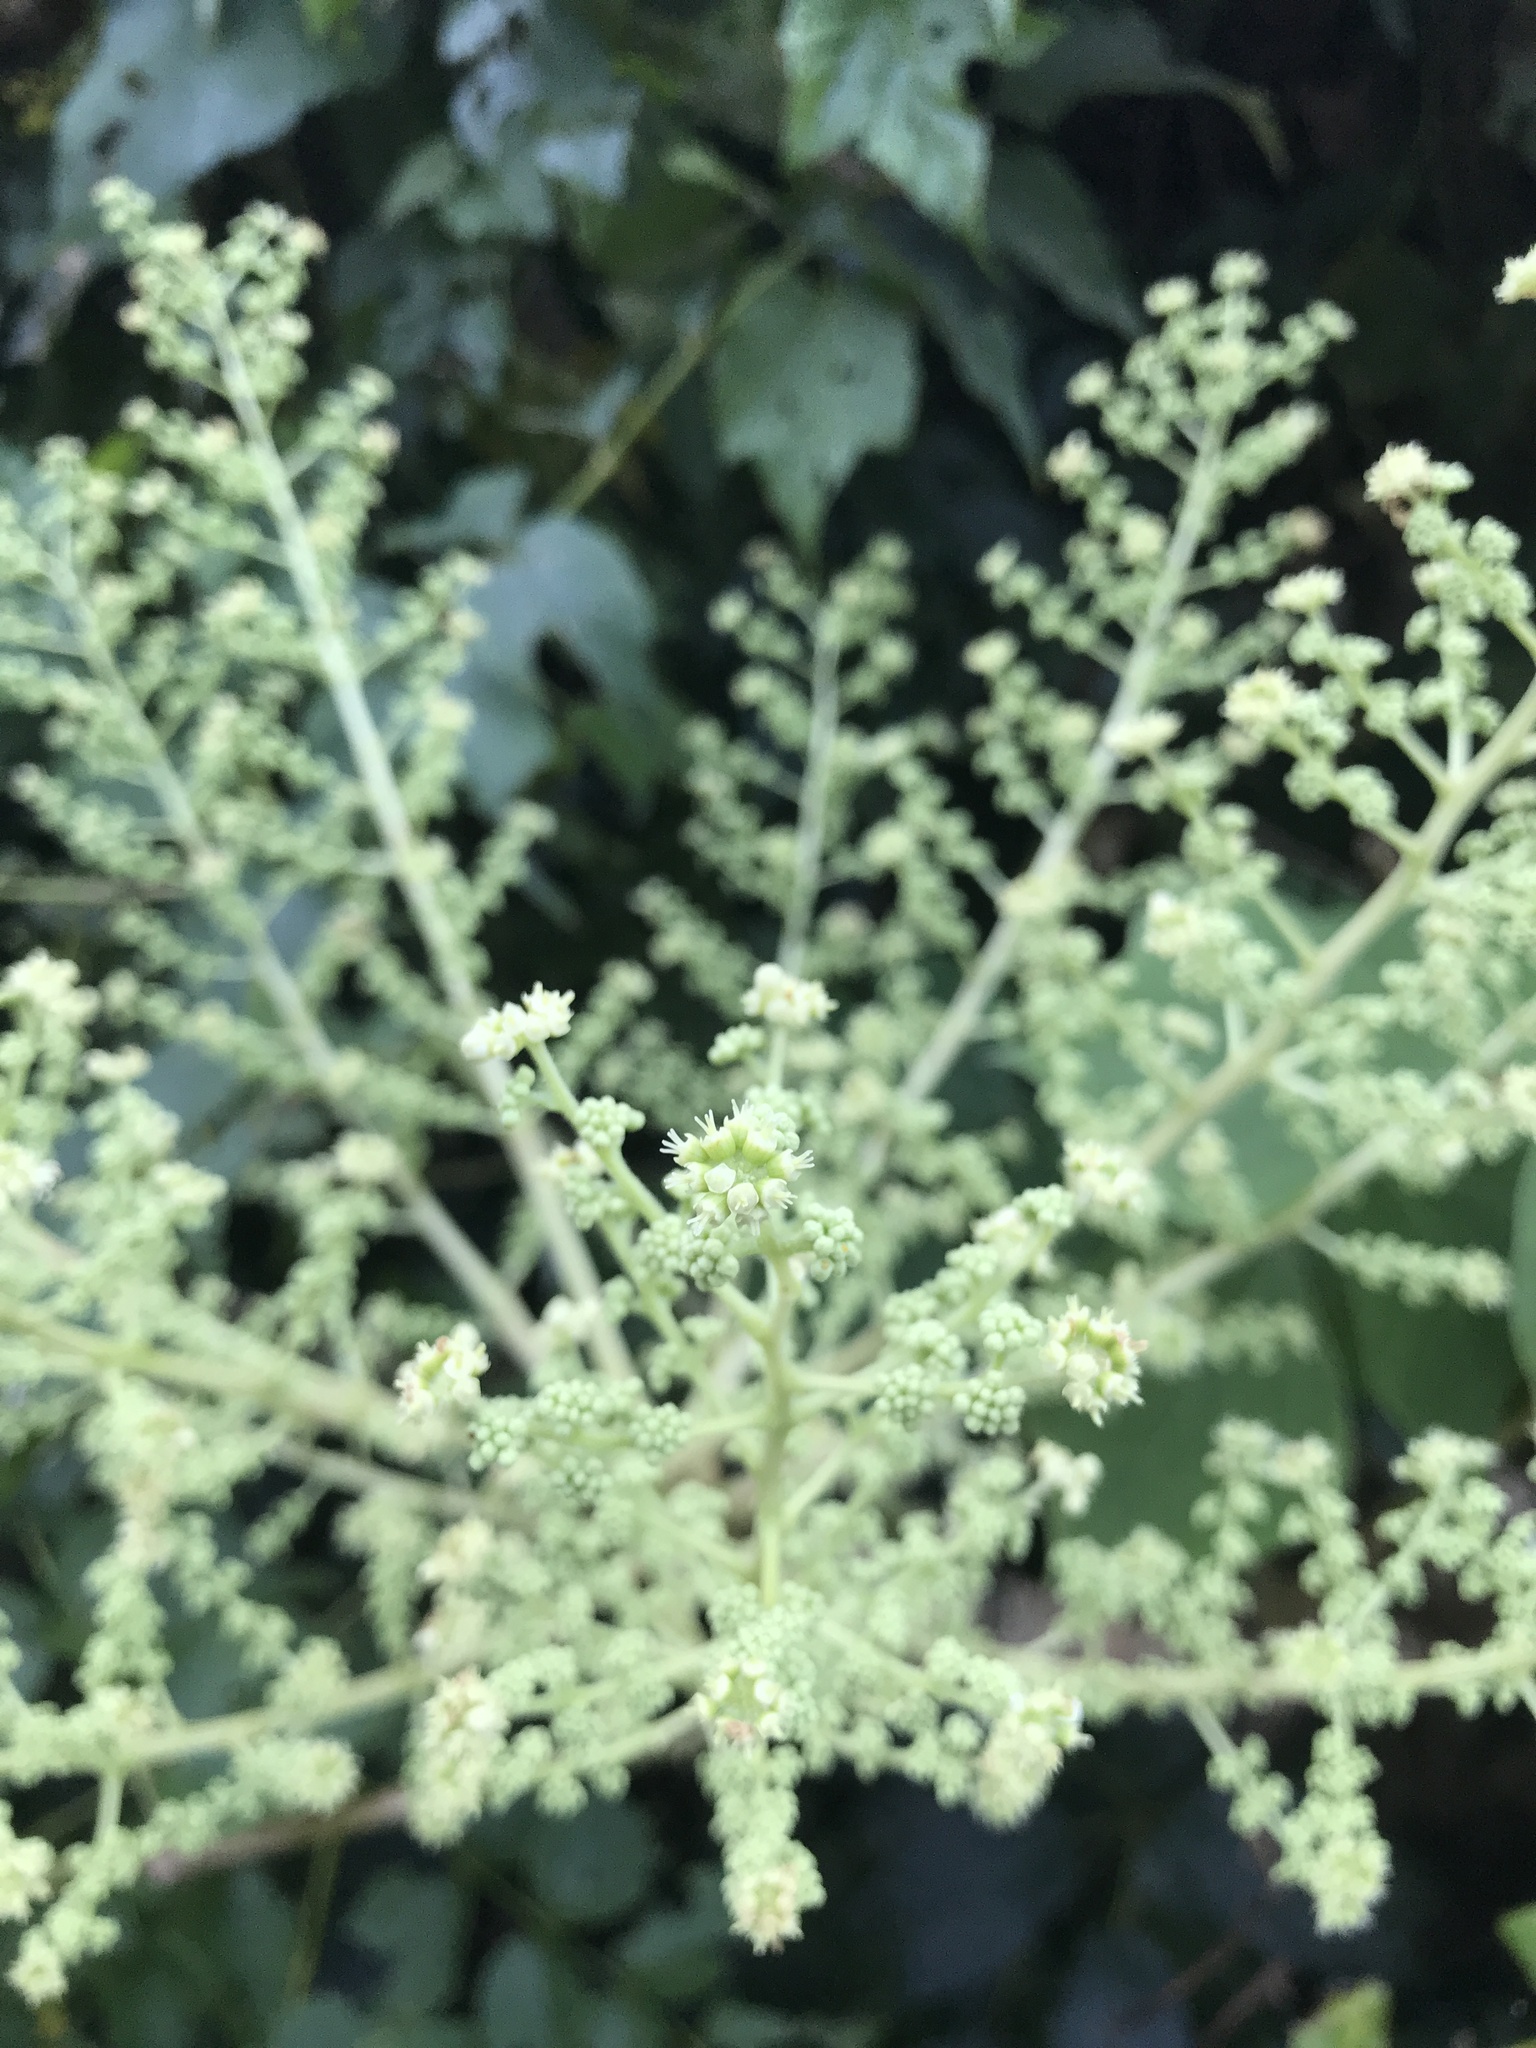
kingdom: Plantae
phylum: Tracheophyta
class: Magnoliopsida
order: Apiales
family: Araliaceae
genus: Aralia
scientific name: Aralia elata
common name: Japanese angelica-tree
